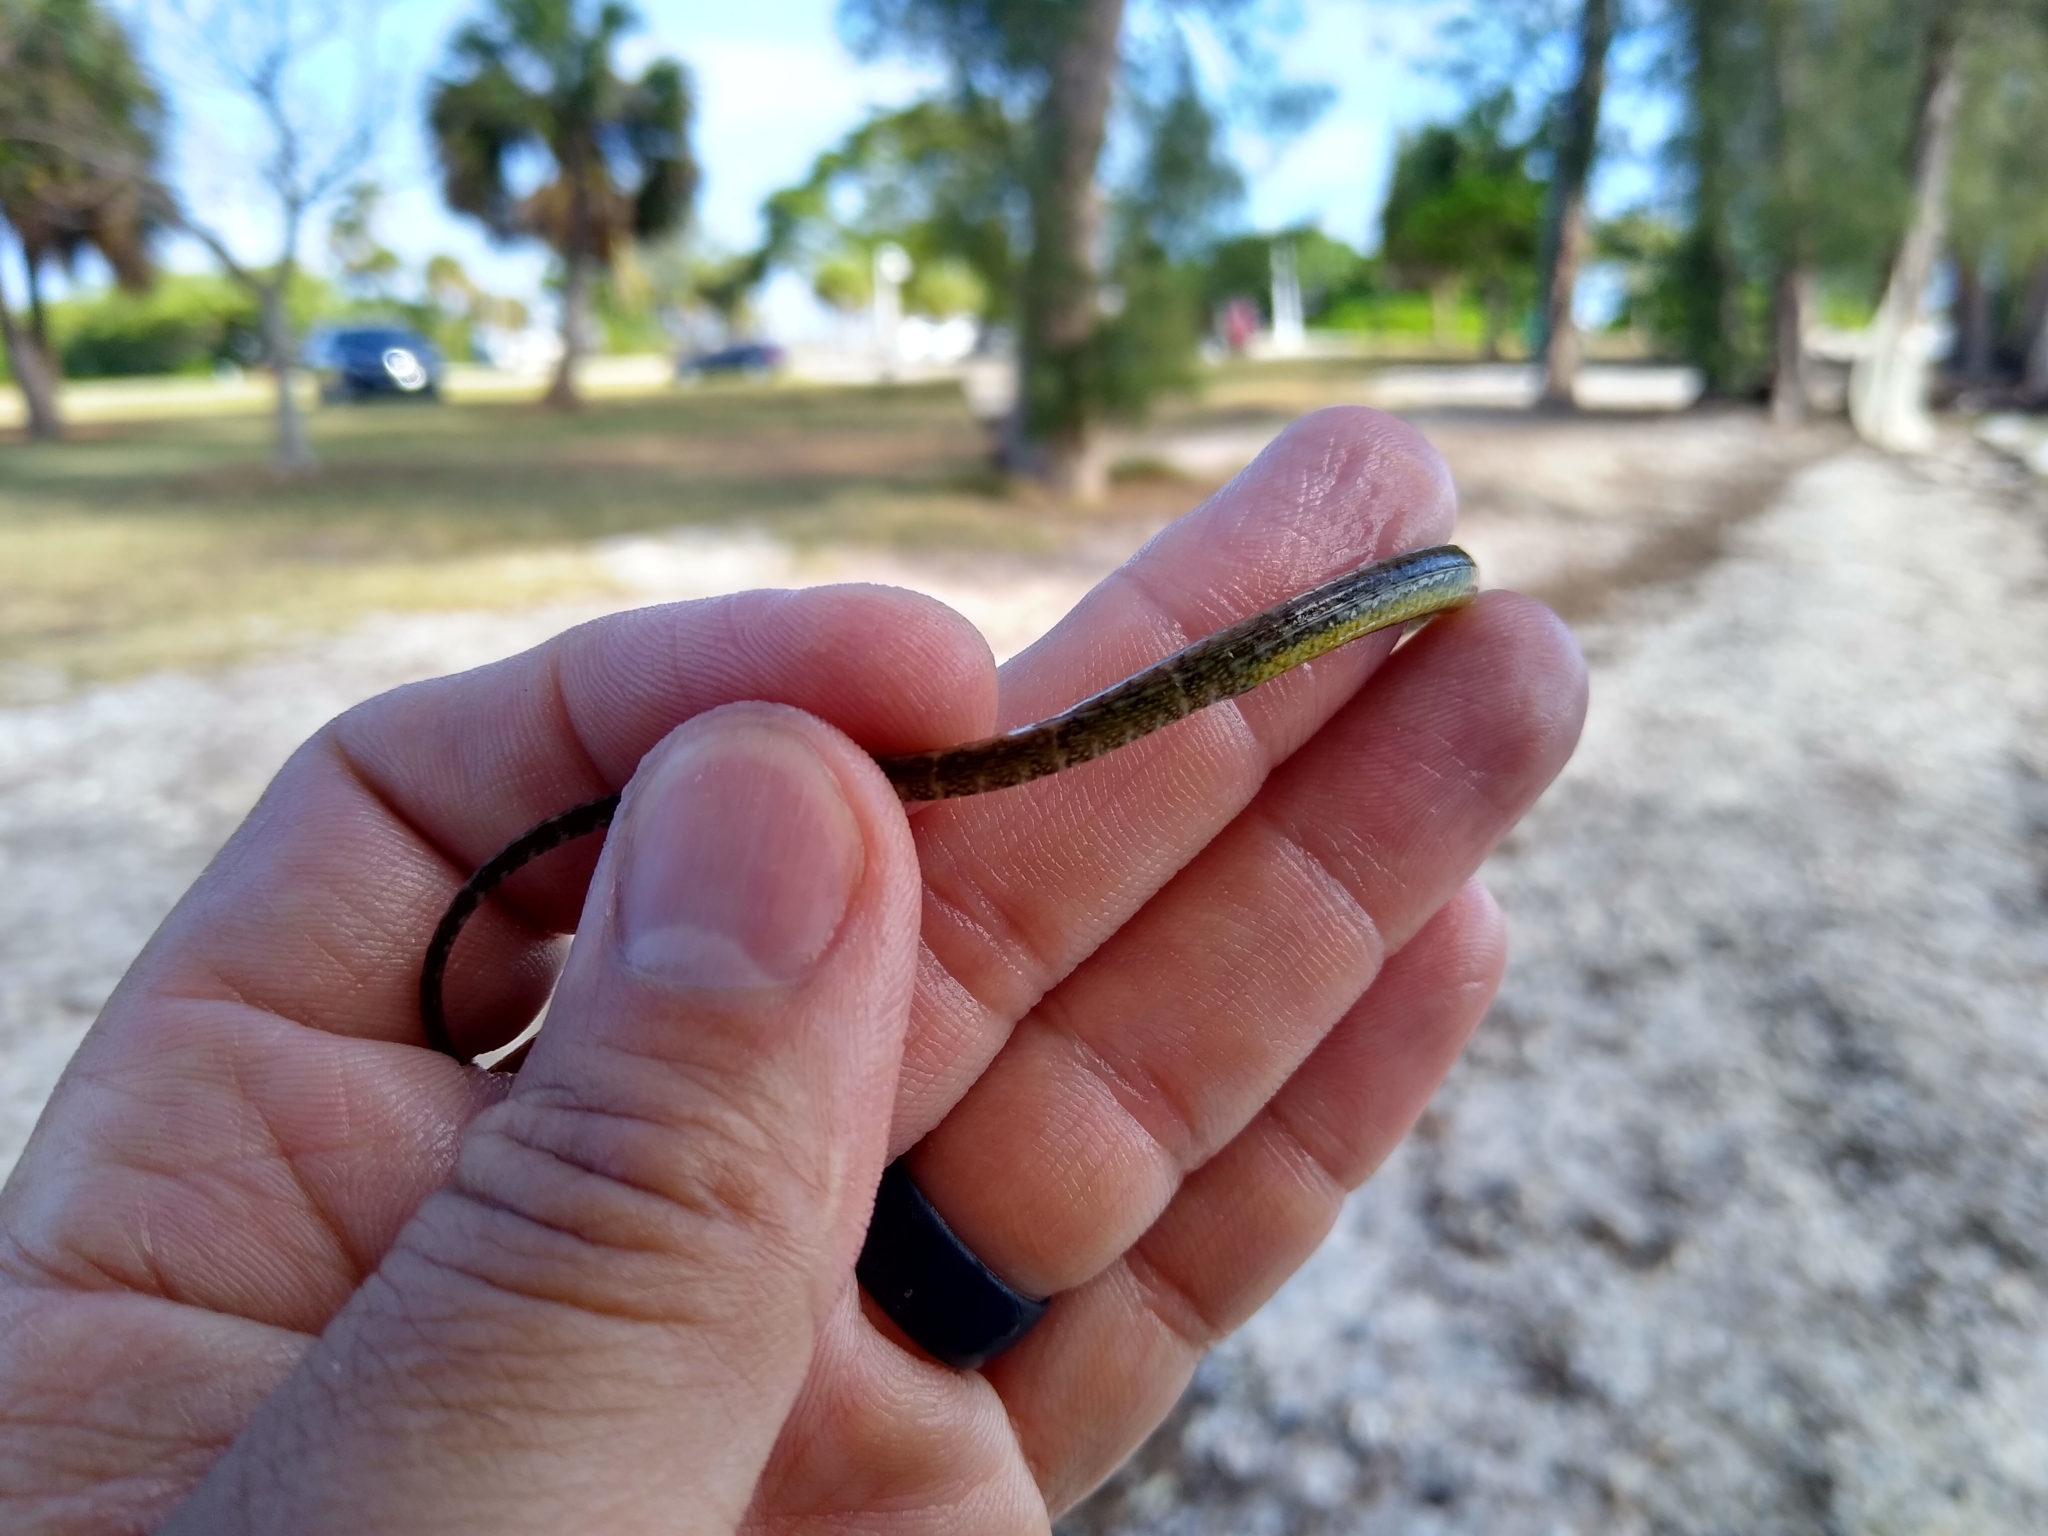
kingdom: Animalia
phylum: Chordata
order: Syngnathiformes
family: Syngnathidae
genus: Syngnathus
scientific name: Syngnathus floridae
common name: Dusky pipefish
